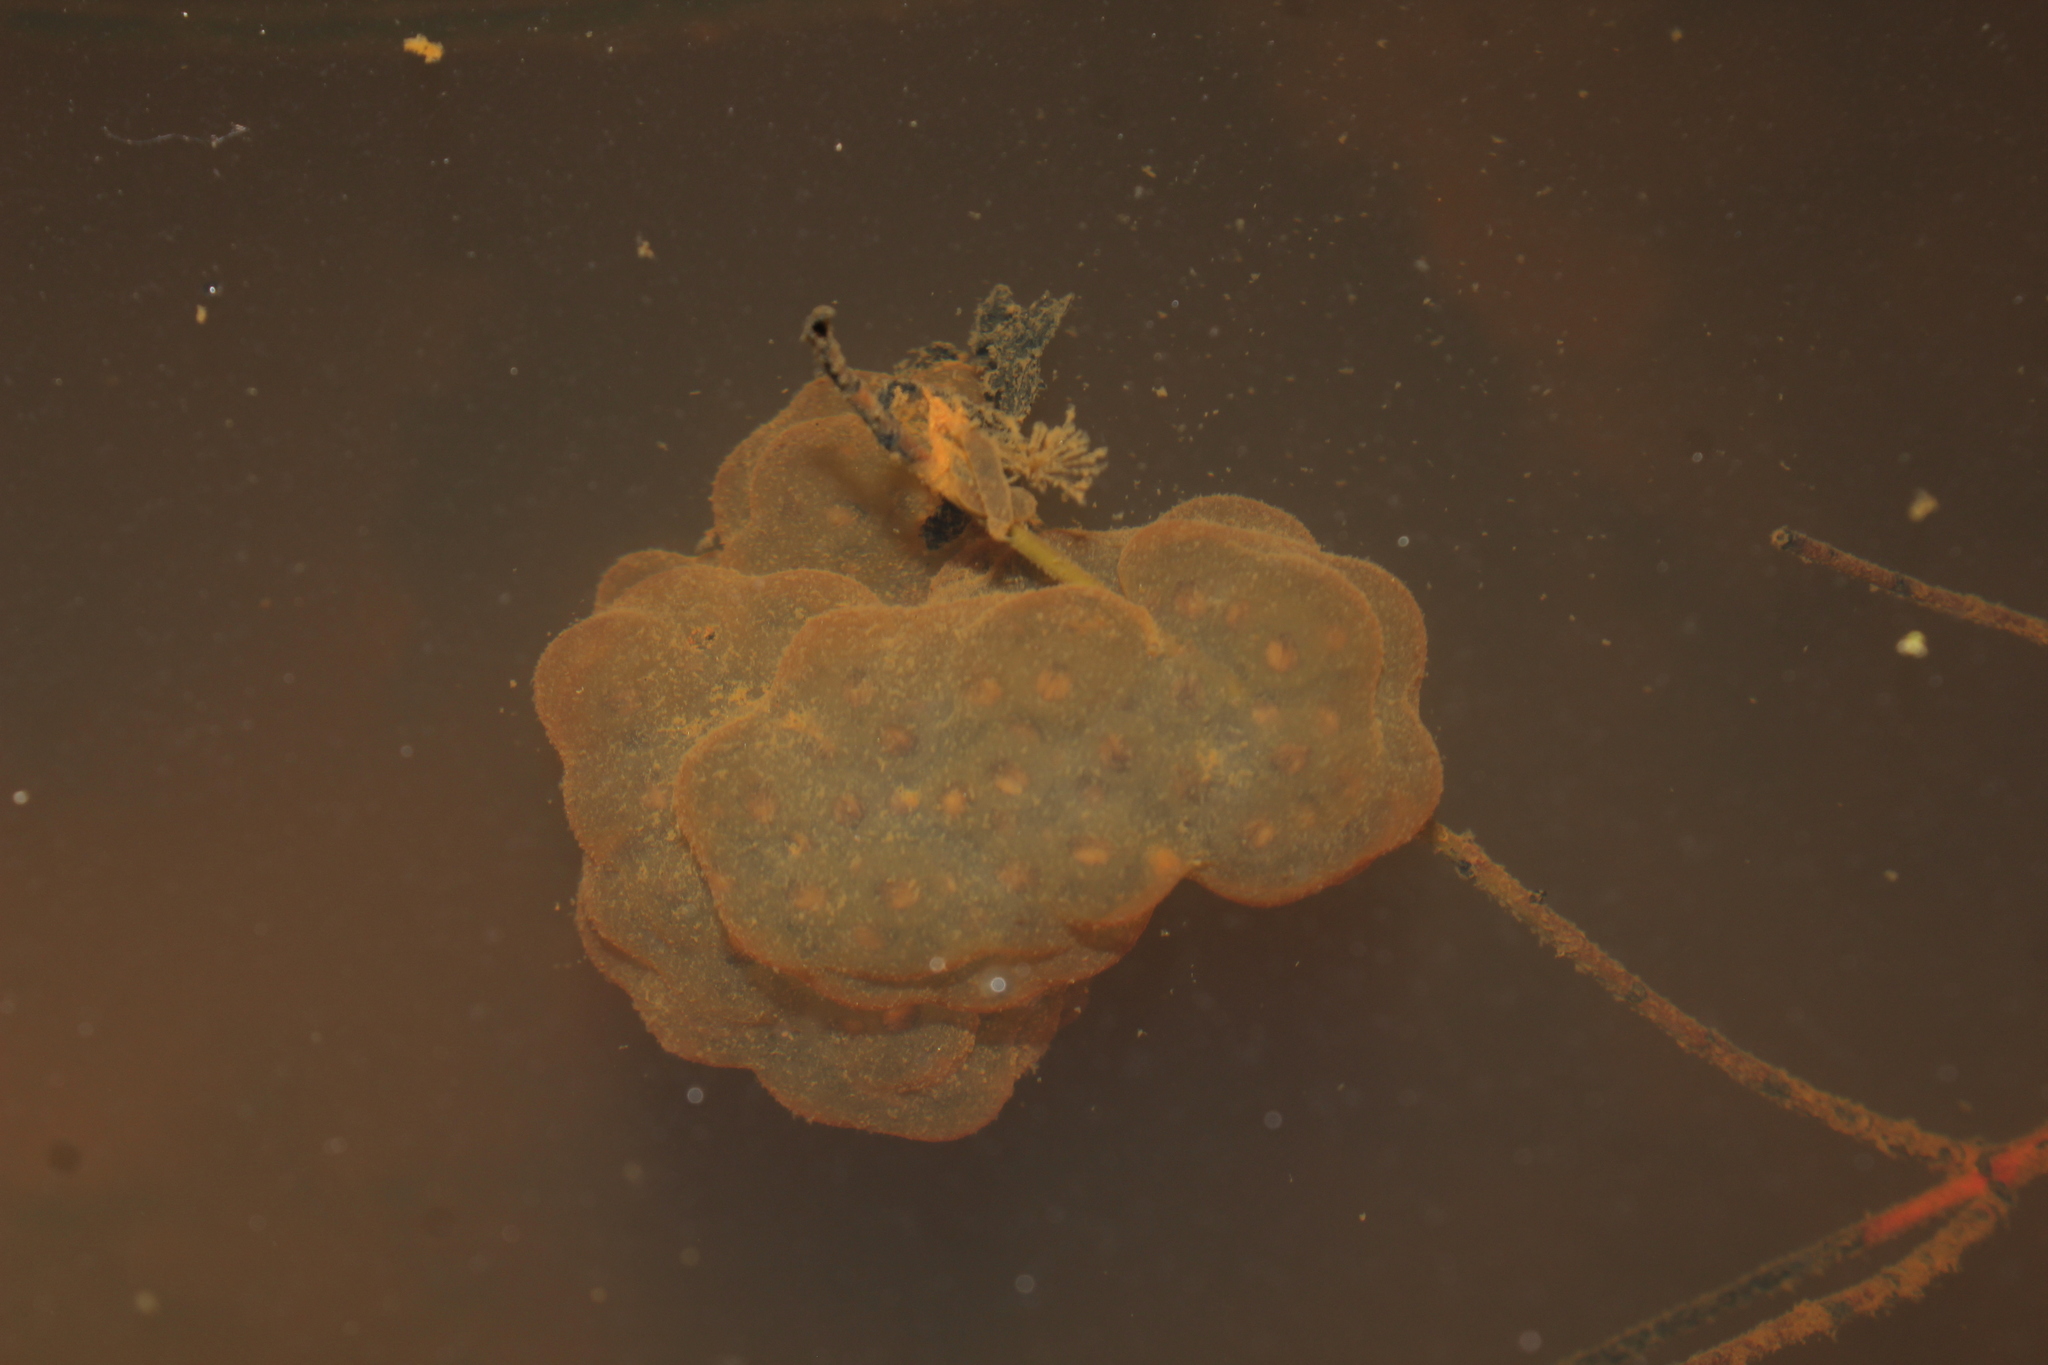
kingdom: Animalia
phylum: Chordata
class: Amphibia
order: Caudata
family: Ambystomatidae
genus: Ambystoma
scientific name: Ambystoma maculatum
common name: Spotted salamander
